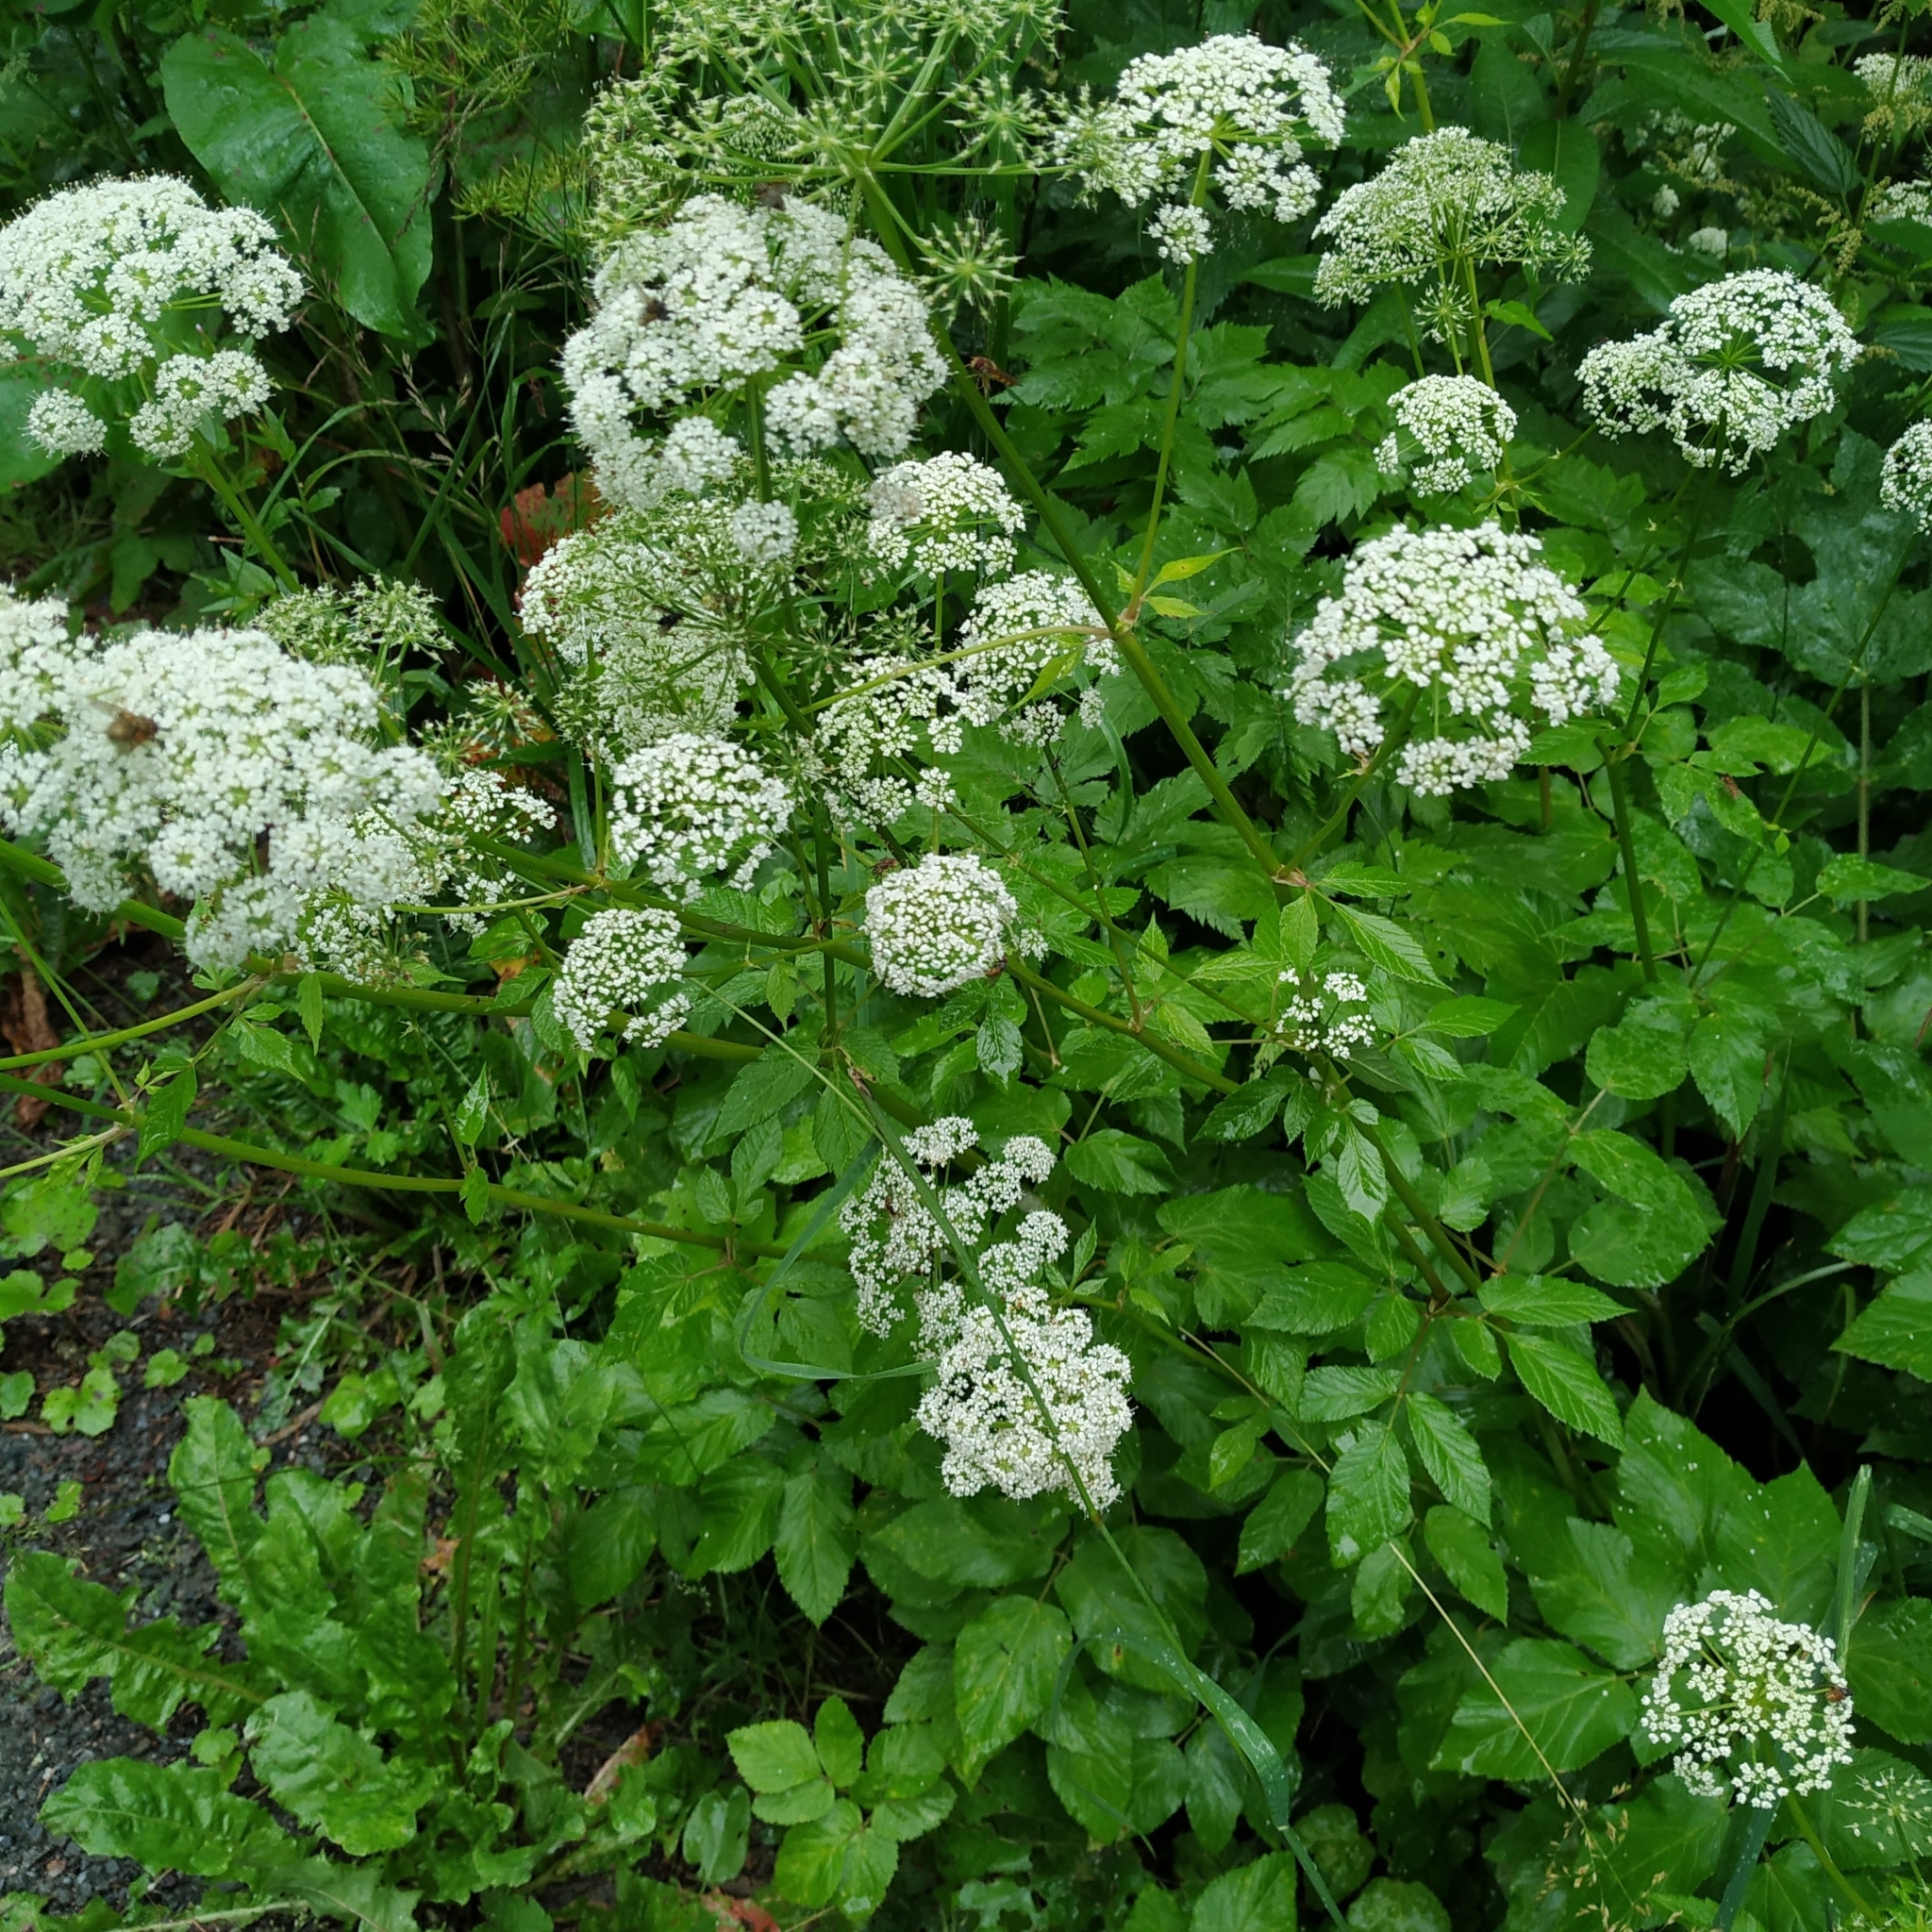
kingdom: Plantae
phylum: Tracheophyta
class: Magnoliopsida
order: Apiales
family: Apiaceae
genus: Aegopodium
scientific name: Aegopodium podagraria
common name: Ground-elder
